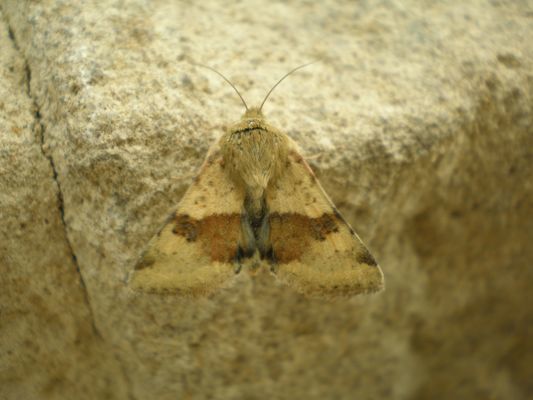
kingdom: Animalia
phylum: Arthropoda
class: Insecta
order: Lepidoptera
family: Noctuidae
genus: Heliothis
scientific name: Heliothis viriplaca
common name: Marbled clover
